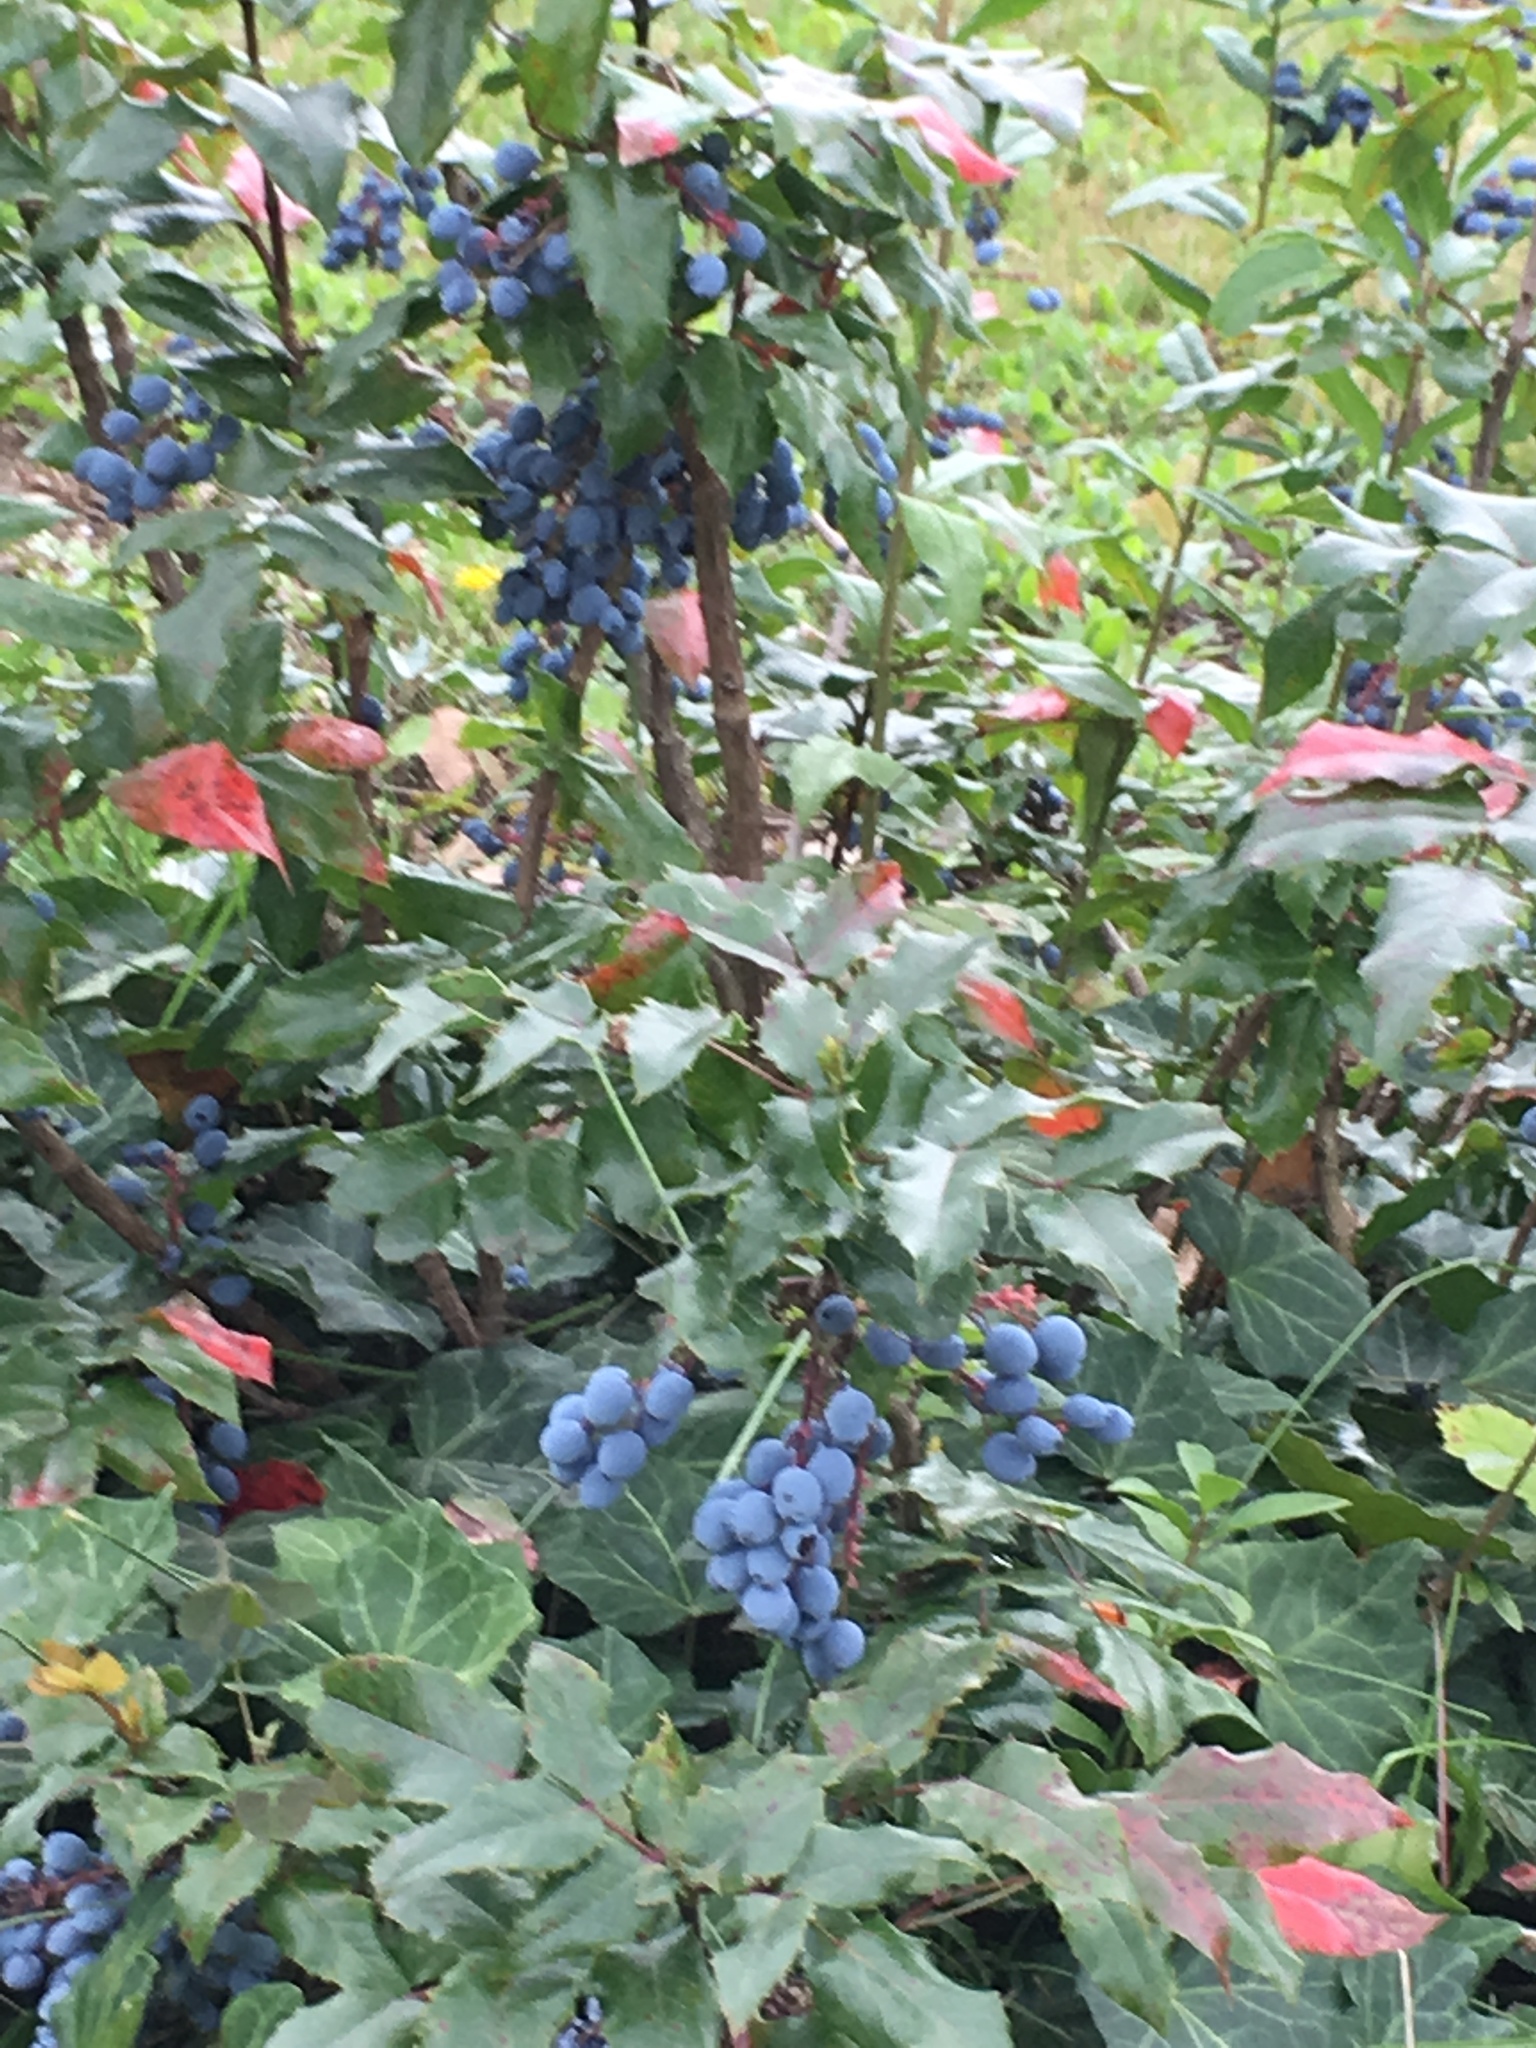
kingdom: Plantae
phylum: Tracheophyta
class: Magnoliopsida
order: Ranunculales
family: Berberidaceae
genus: Mahonia
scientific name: Mahonia aquifolium
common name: Oregon-grape
